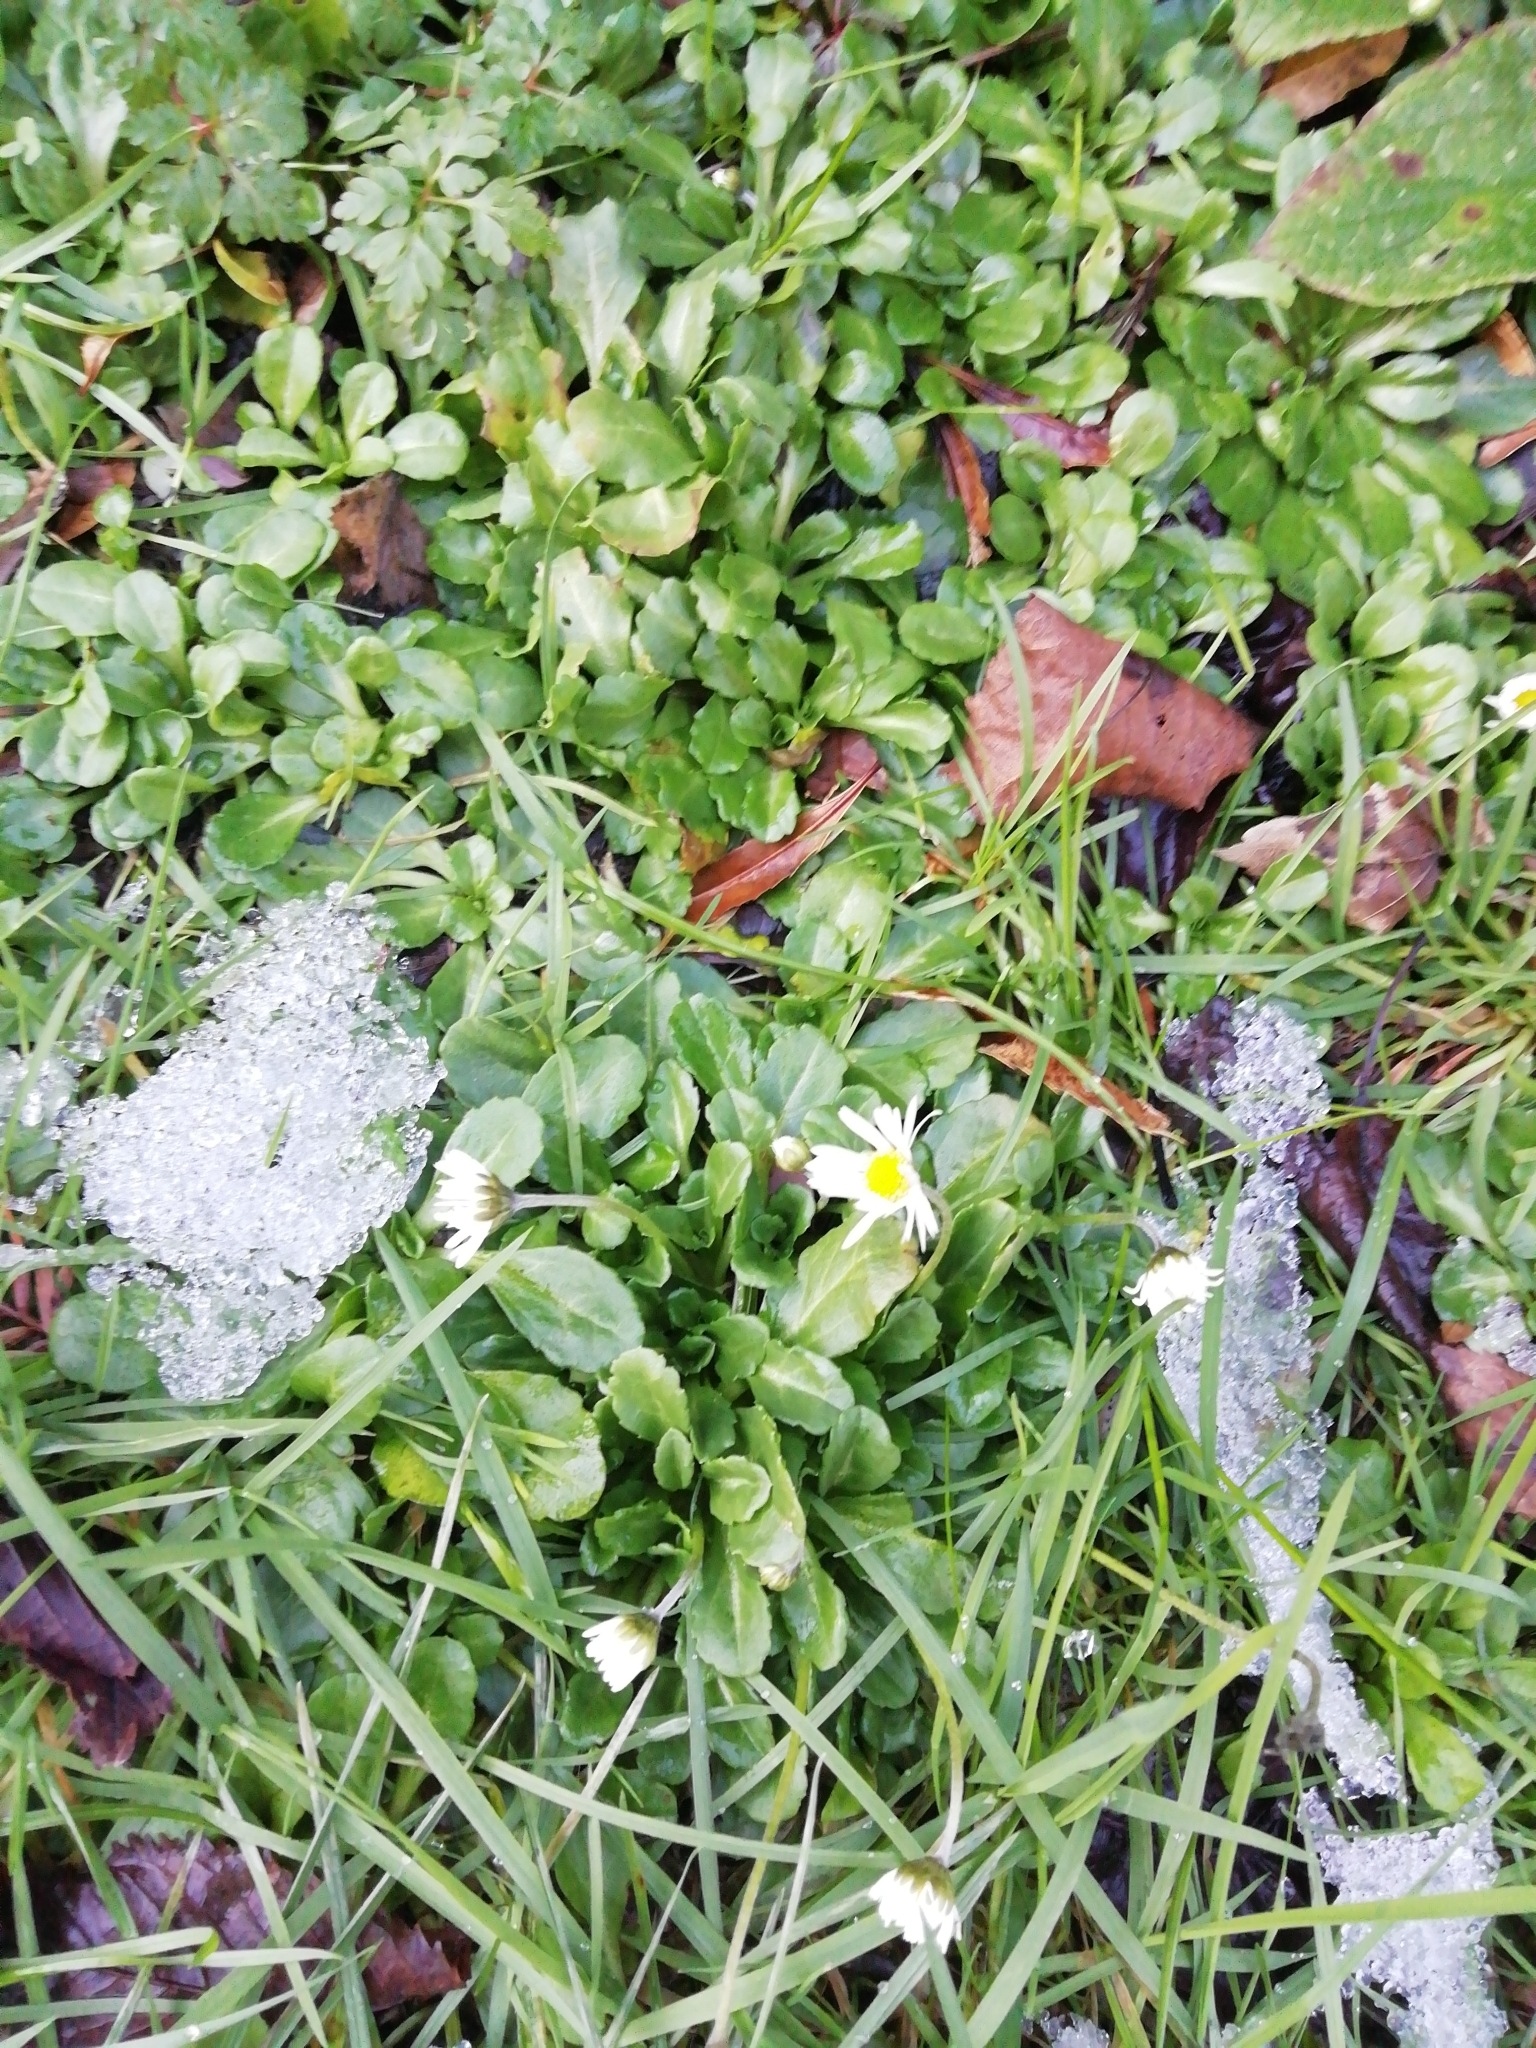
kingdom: Plantae
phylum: Tracheophyta
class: Magnoliopsida
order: Asterales
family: Asteraceae
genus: Bellis
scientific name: Bellis perennis
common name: Lawndaisy
